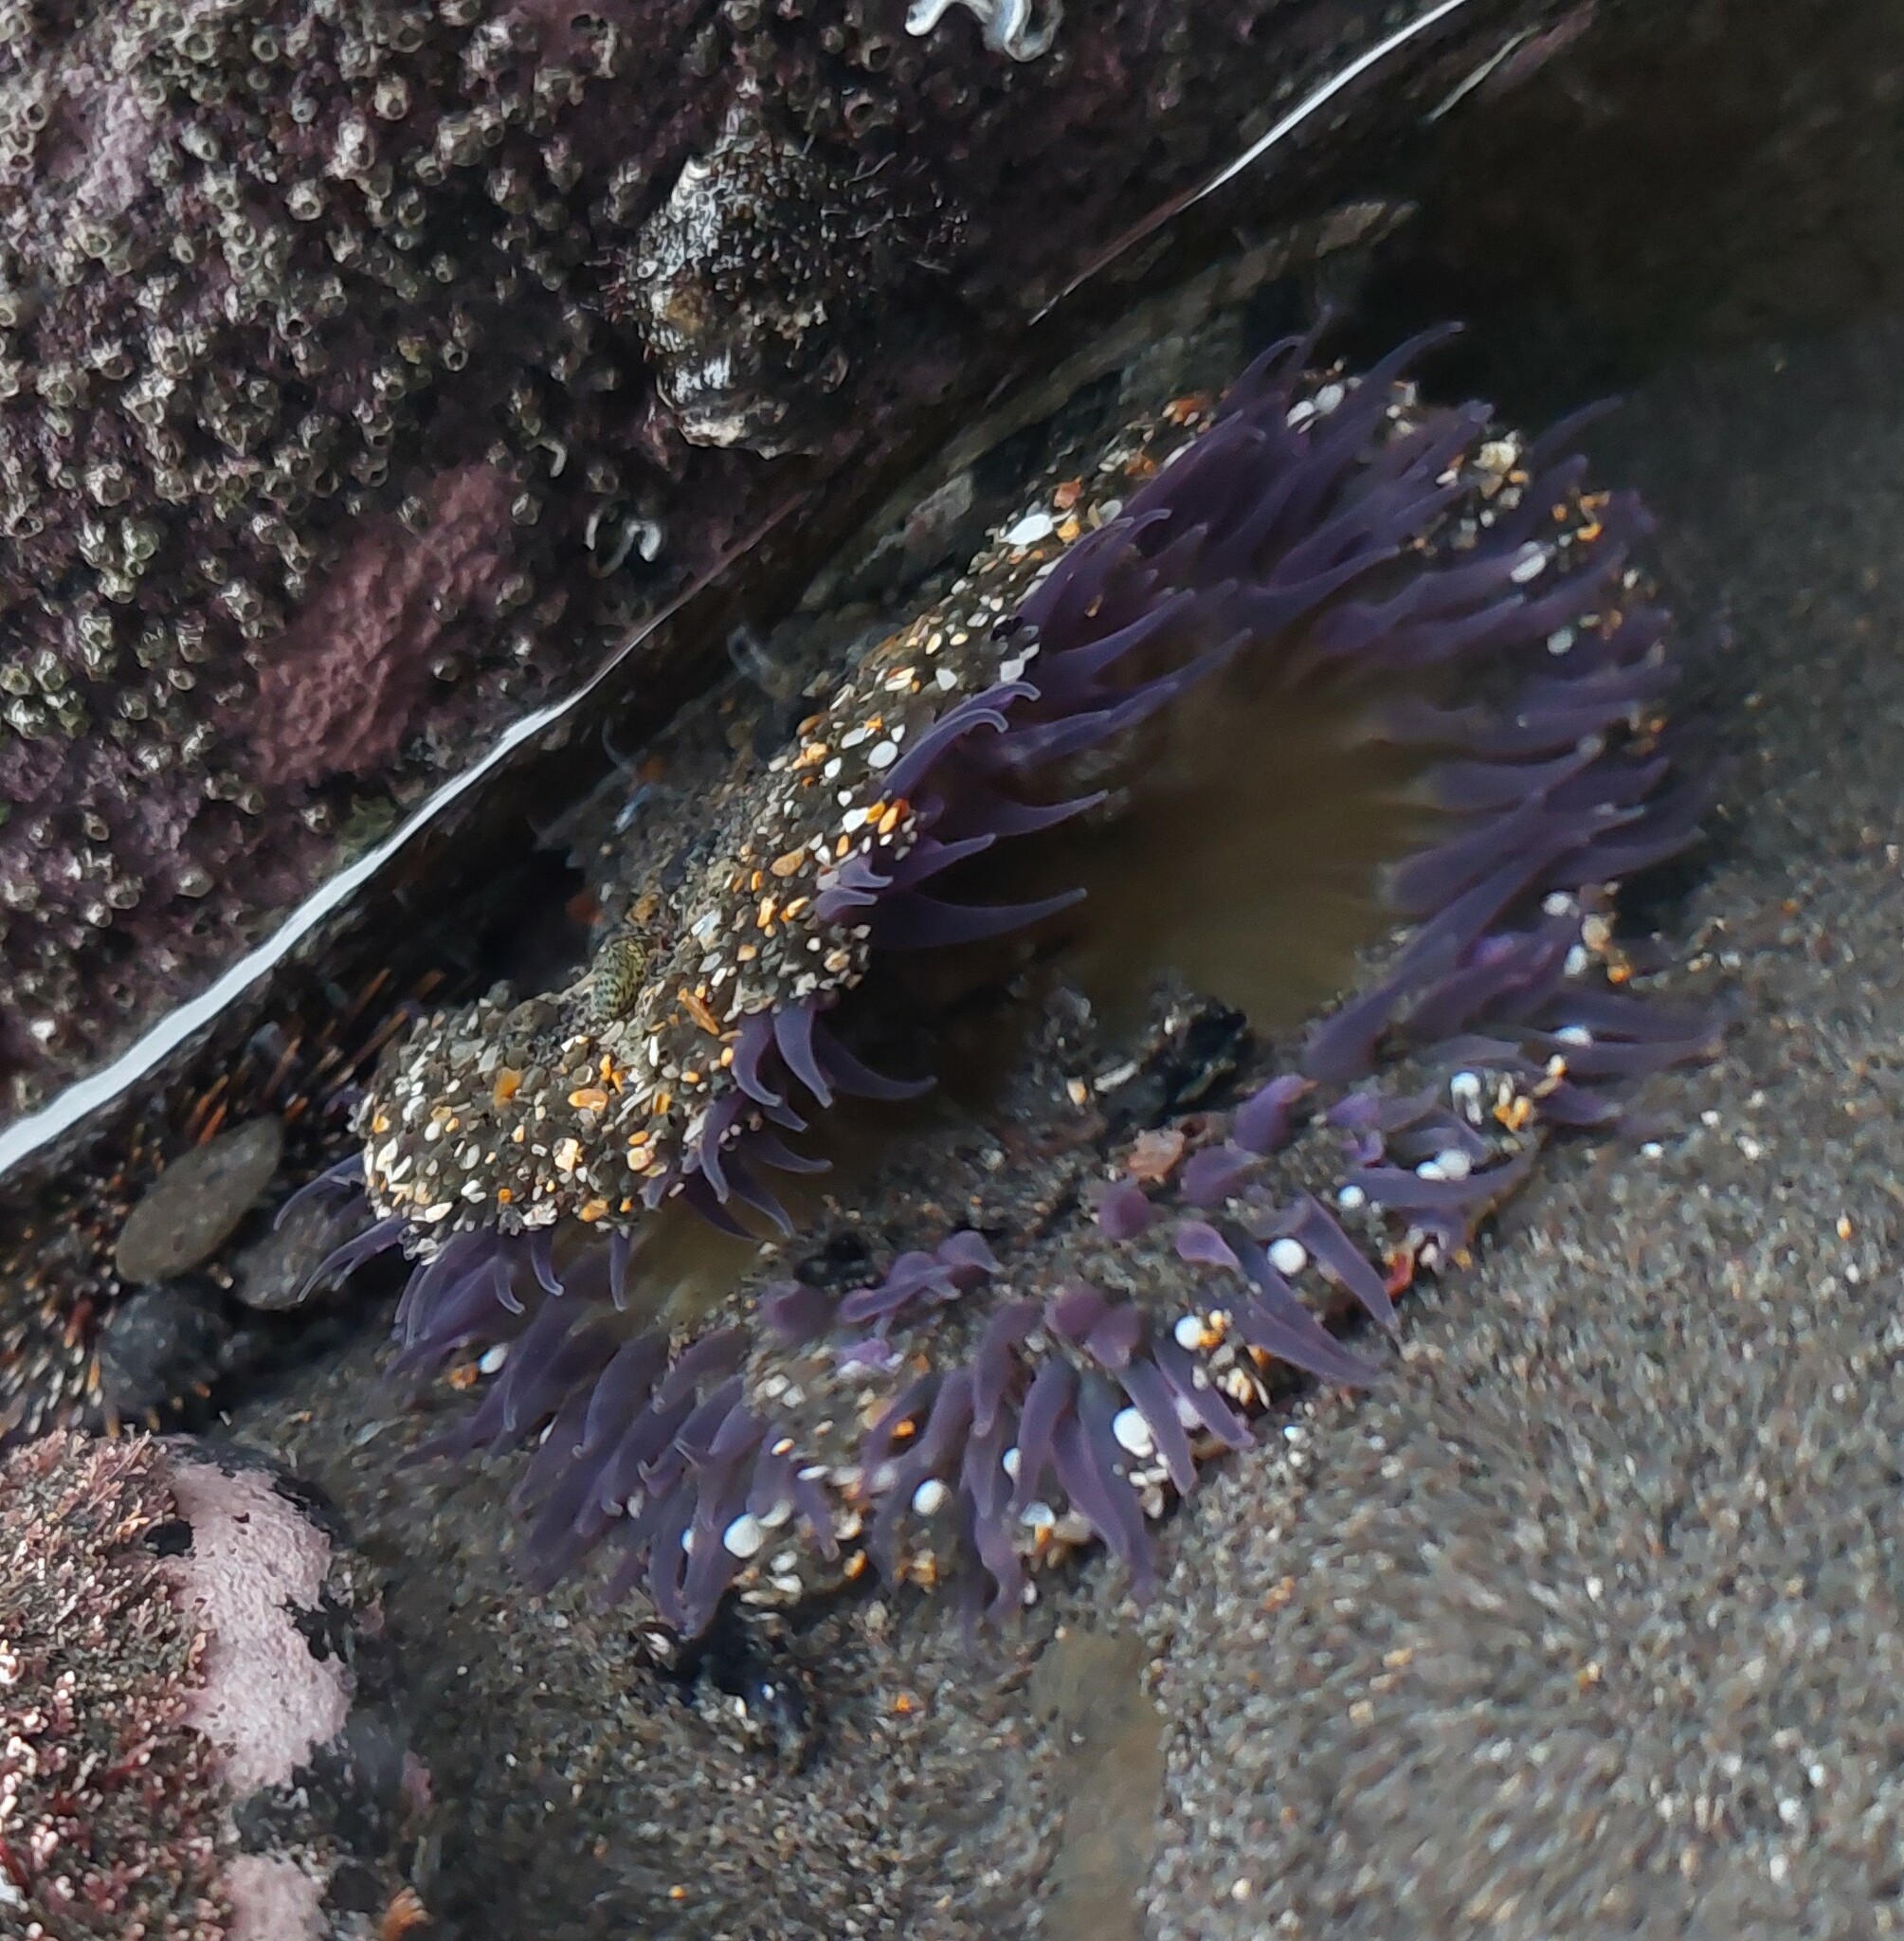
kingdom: Animalia
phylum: Cnidaria
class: Anthozoa
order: Actiniaria
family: Actiniidae
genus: Oulactis
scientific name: Oulactis magna
